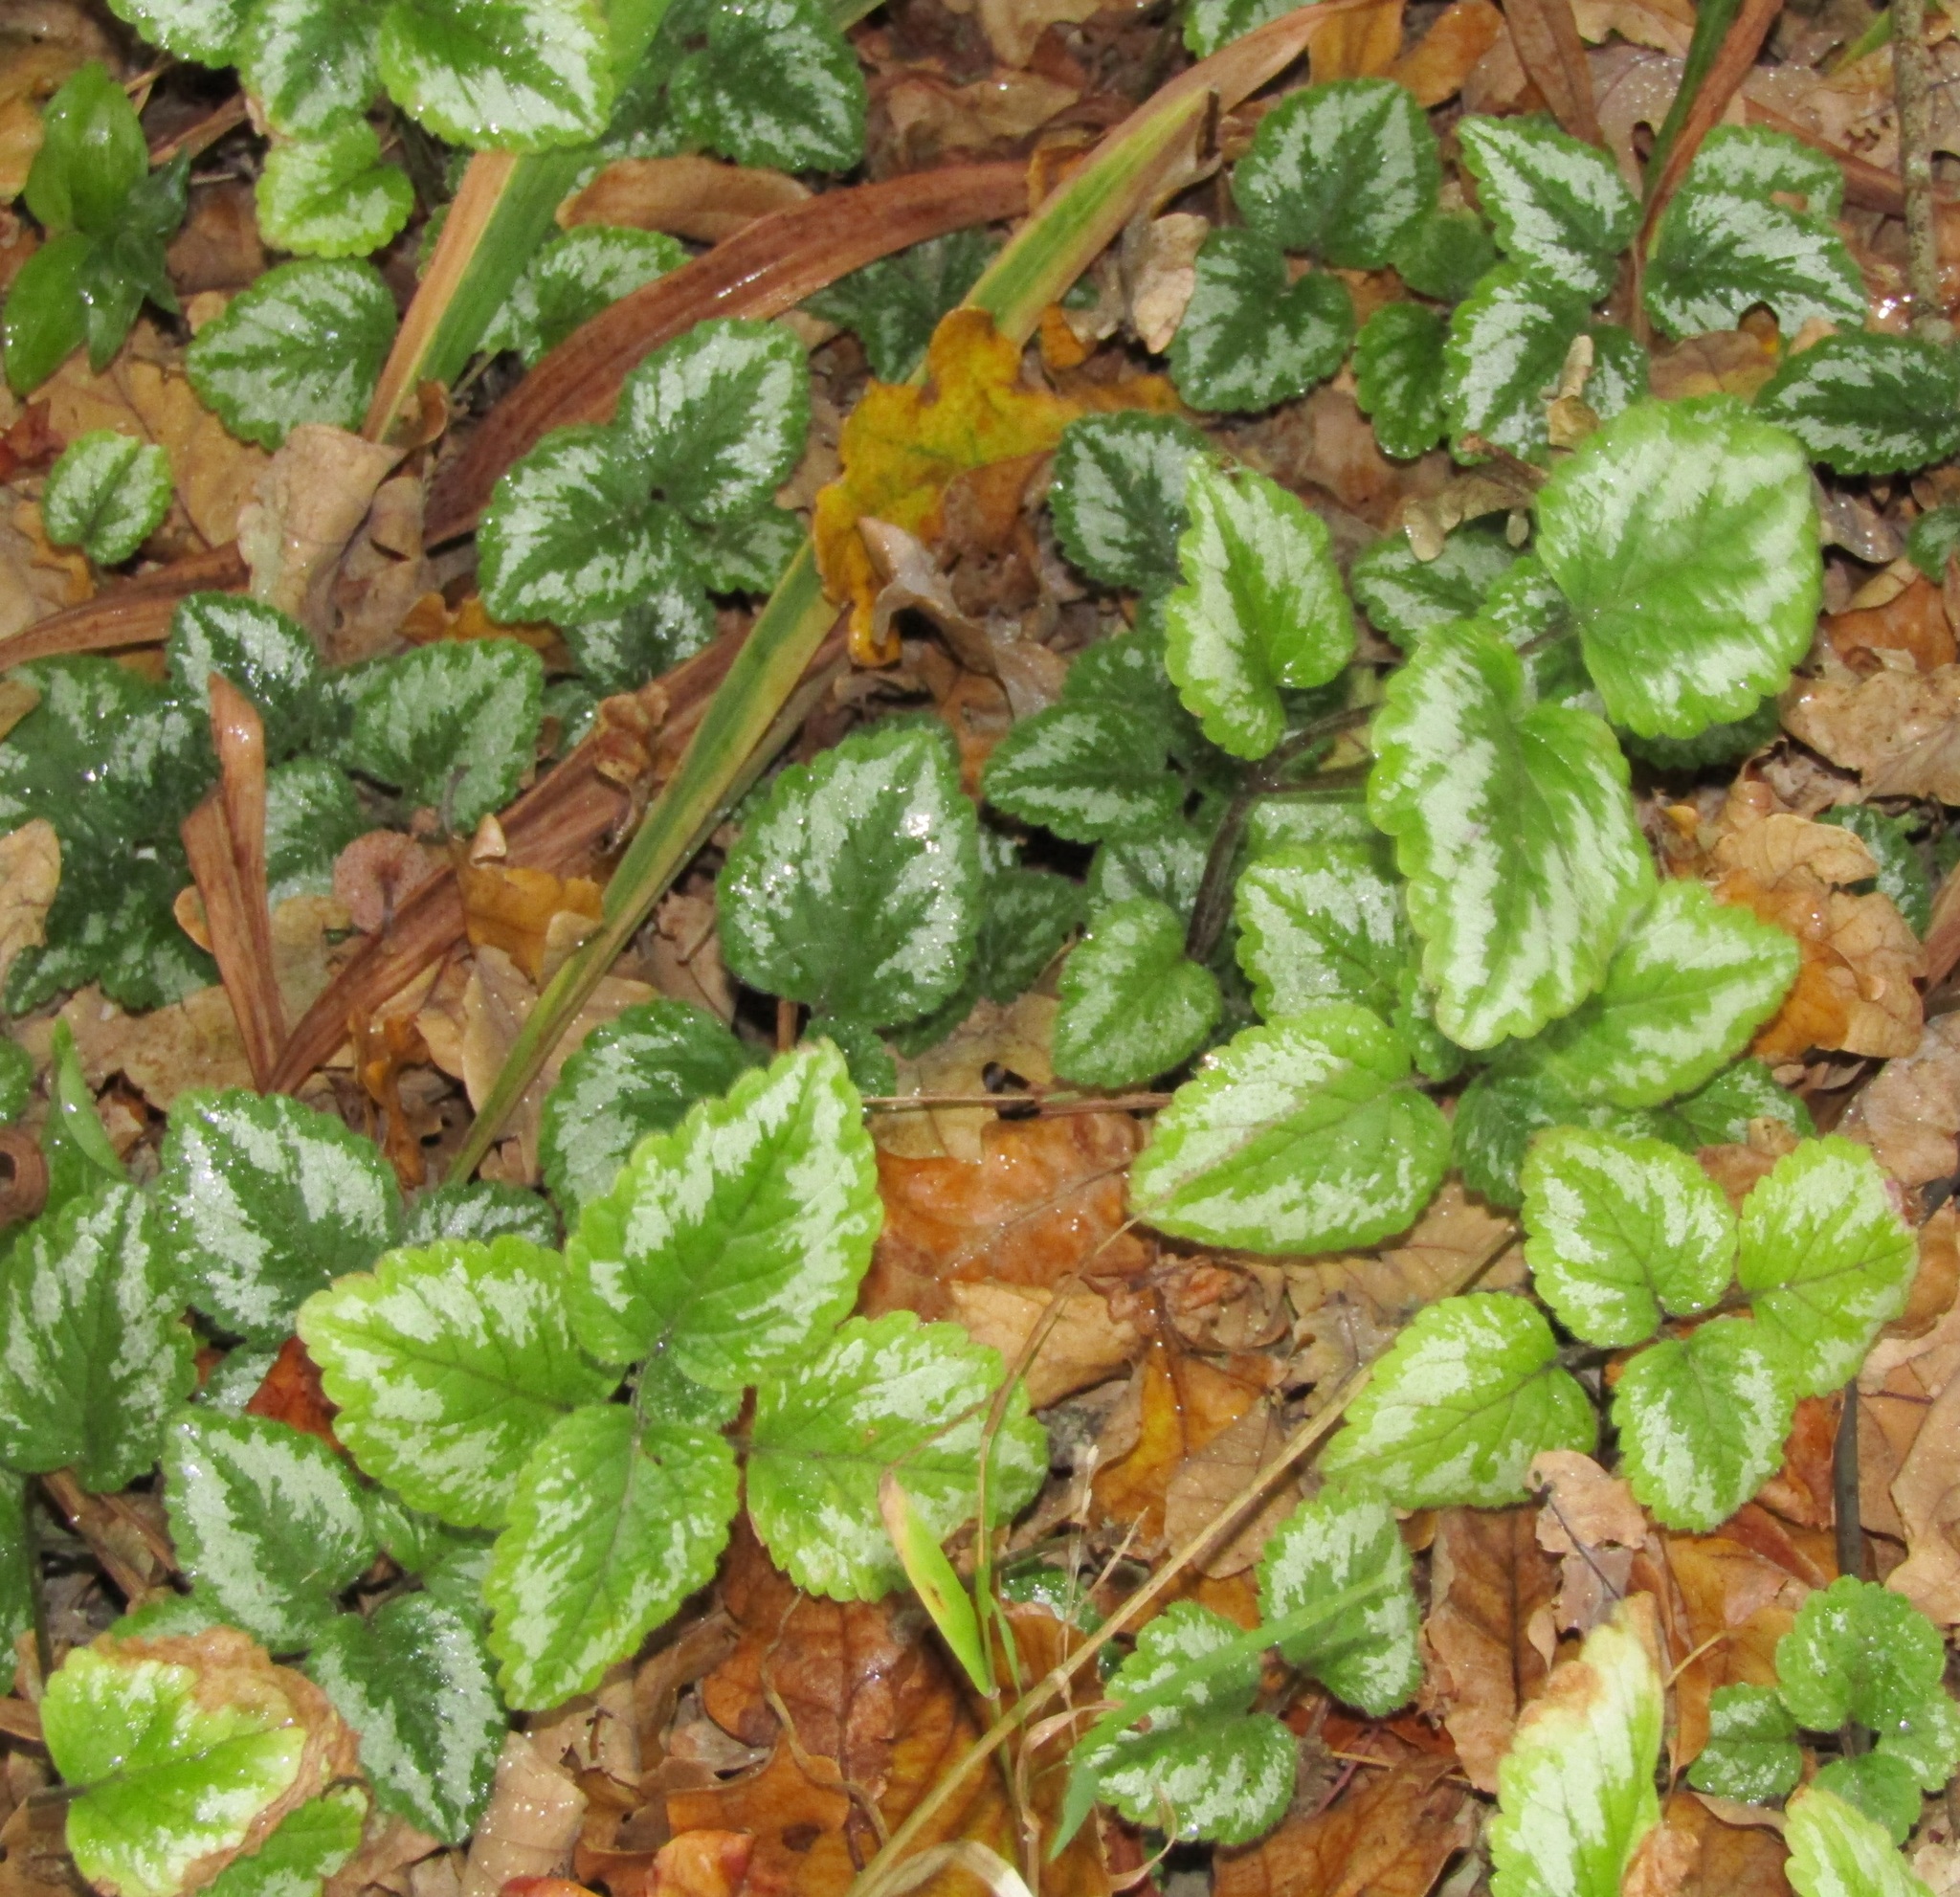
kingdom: Plantae
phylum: Tracheophyta
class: Magnoliopsida
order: Lamiales
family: Lamiaceae
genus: Lamium
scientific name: Lamium galeobdolon
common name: Yellow archangel
